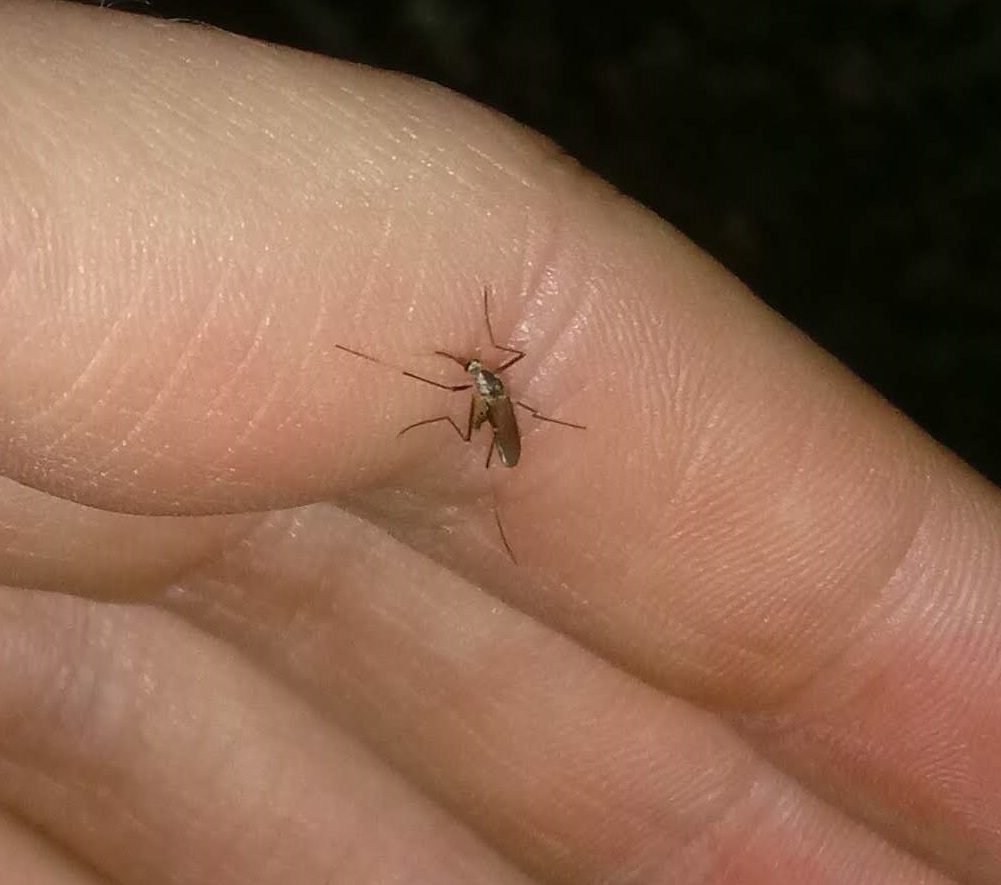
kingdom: Animalia
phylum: Arthropoda
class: Insecta
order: Diptera
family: Culicidae
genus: Aedes
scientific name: Aedes triseriatus
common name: Eastern treehole mosquito
